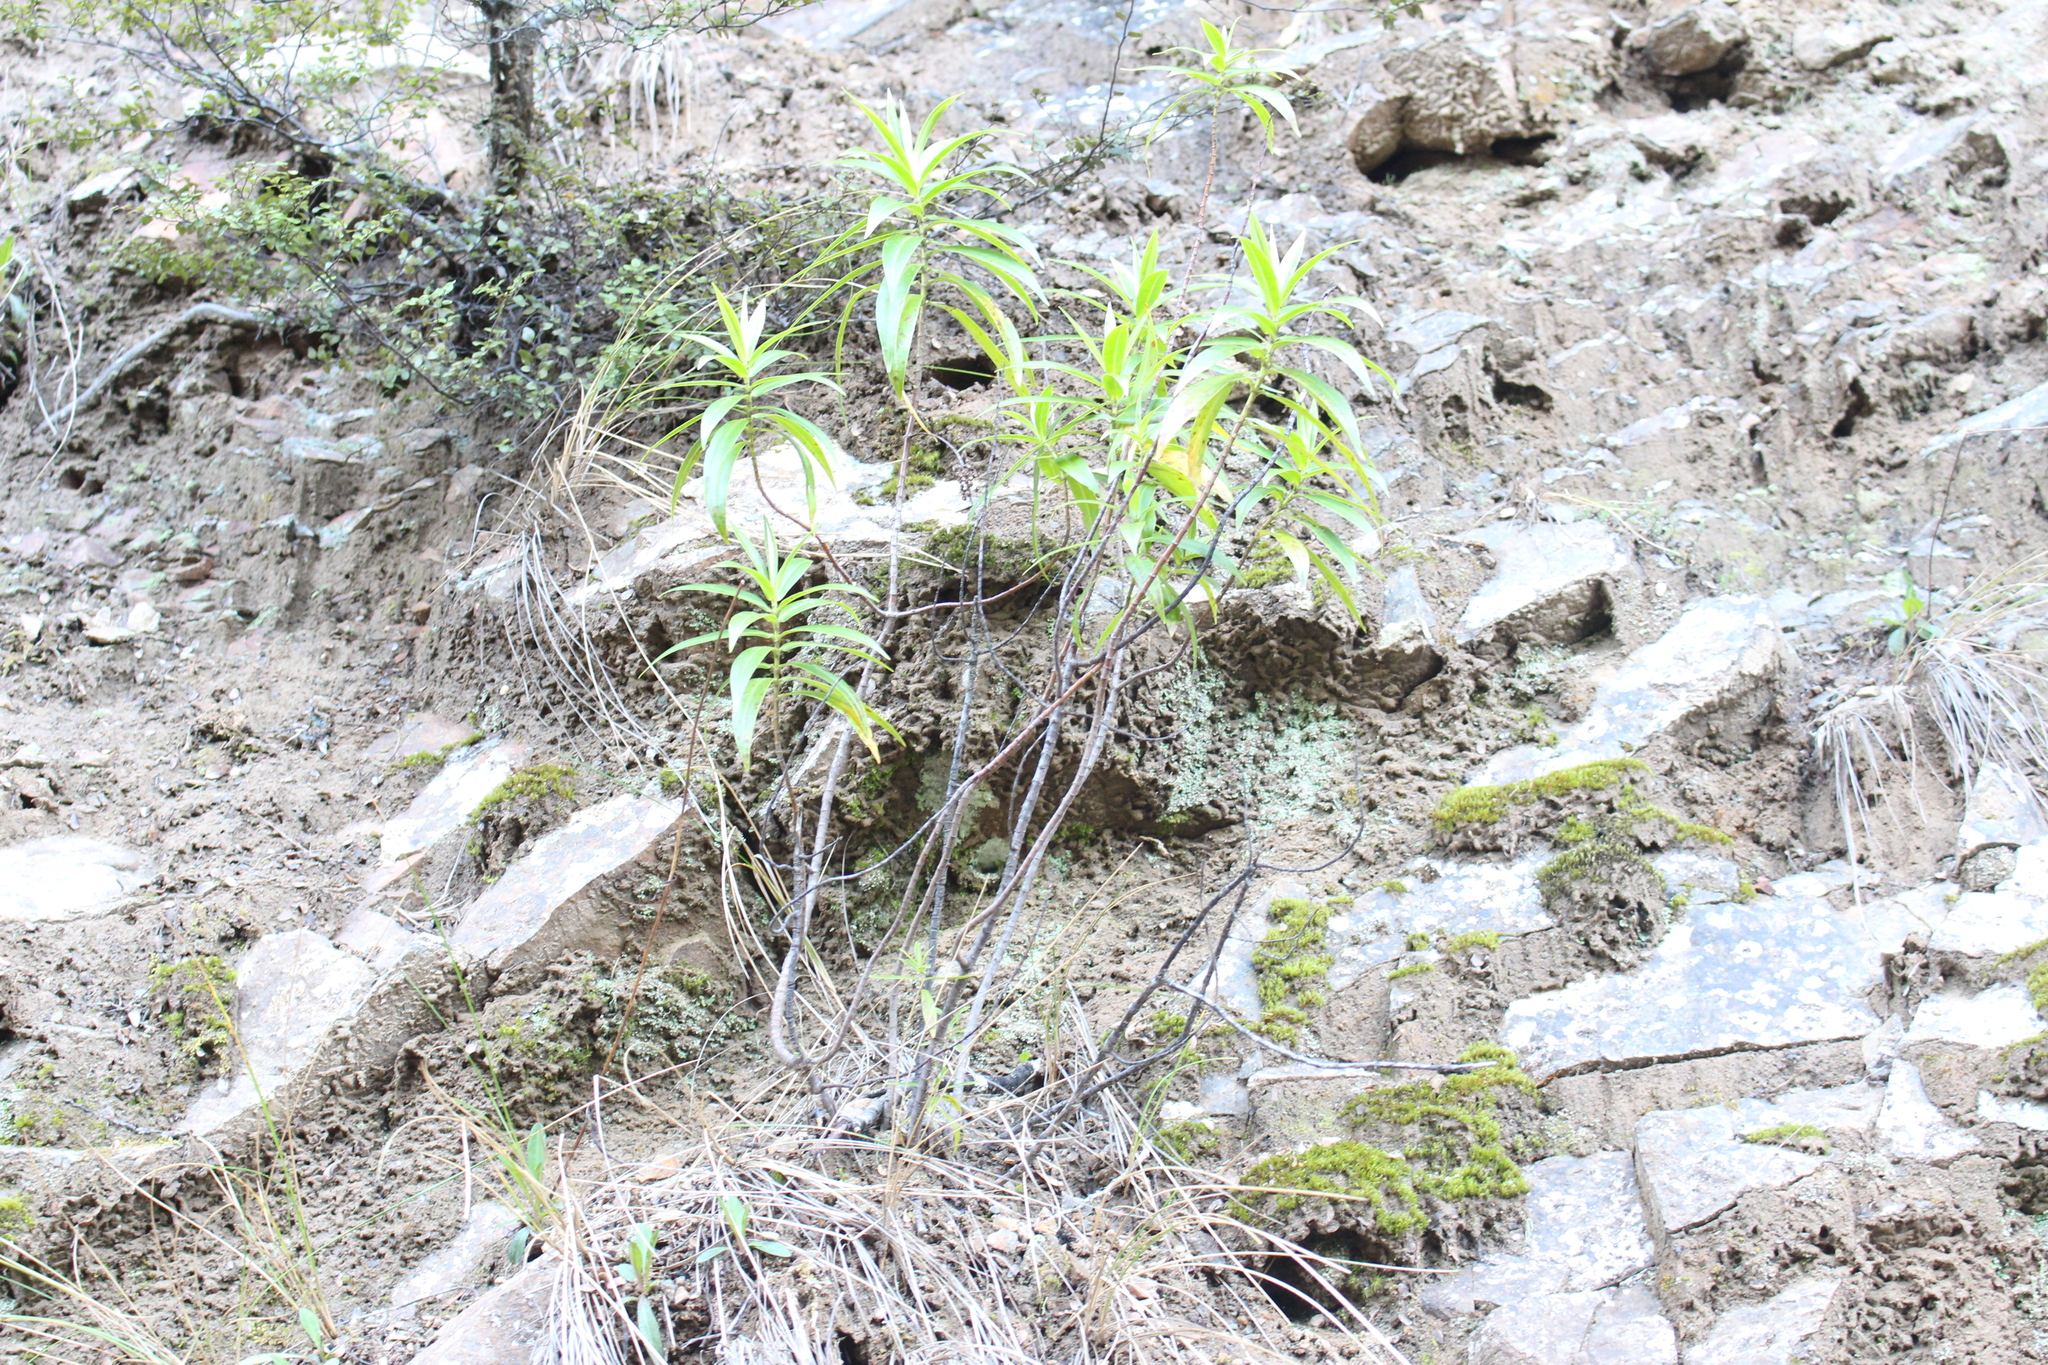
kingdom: Plantae
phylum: Tracheophyta
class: Magnoliopsida
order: Lamiales
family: Plantaginaceae
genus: Veronica
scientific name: Veronica salicifolia
